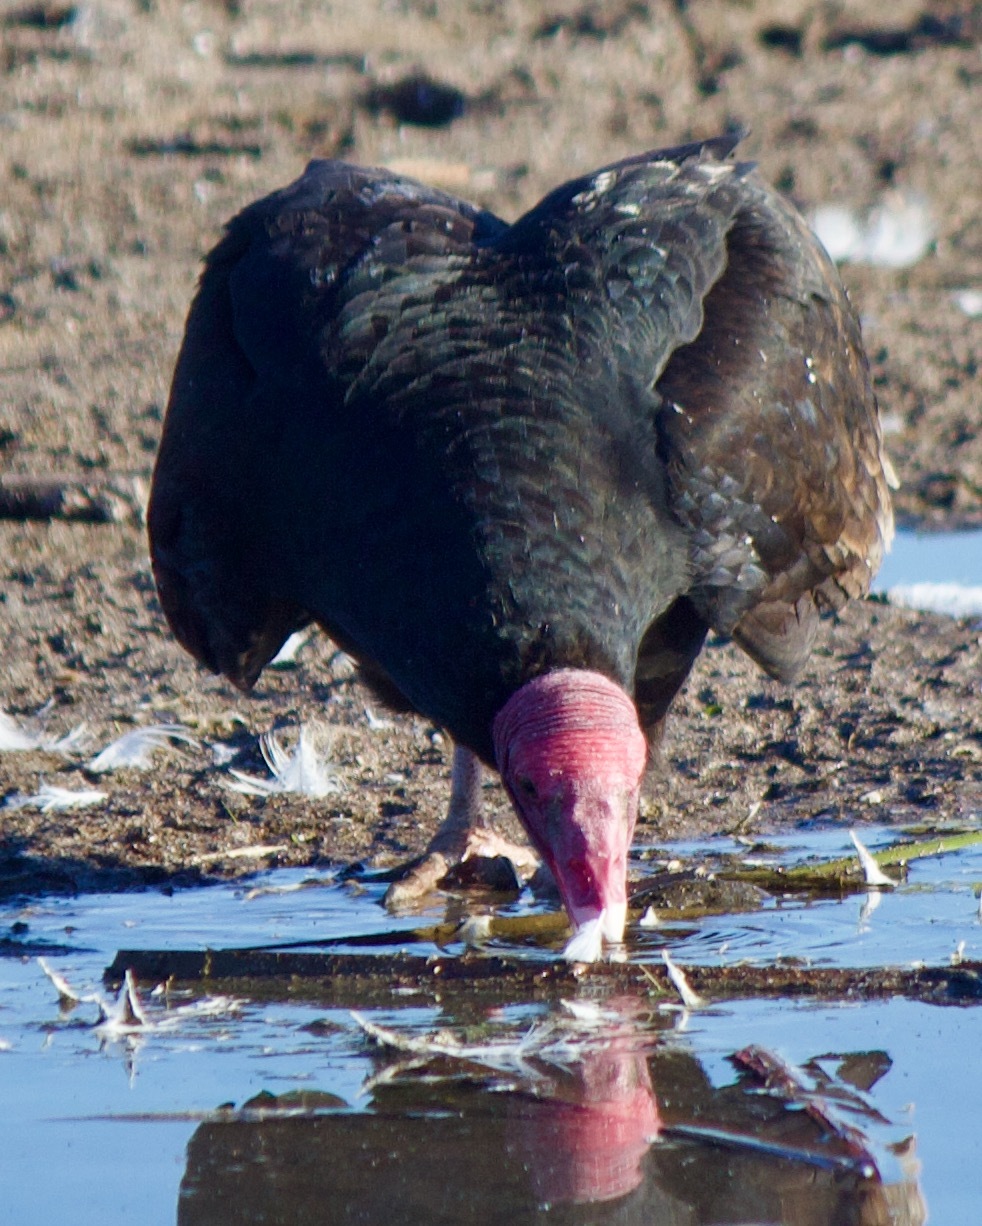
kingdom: Animalia
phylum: Chordata
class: Aves
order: Accipitriformes
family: Cathartidae
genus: Cathartes
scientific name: Cathartes aura
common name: Turkey vulture
